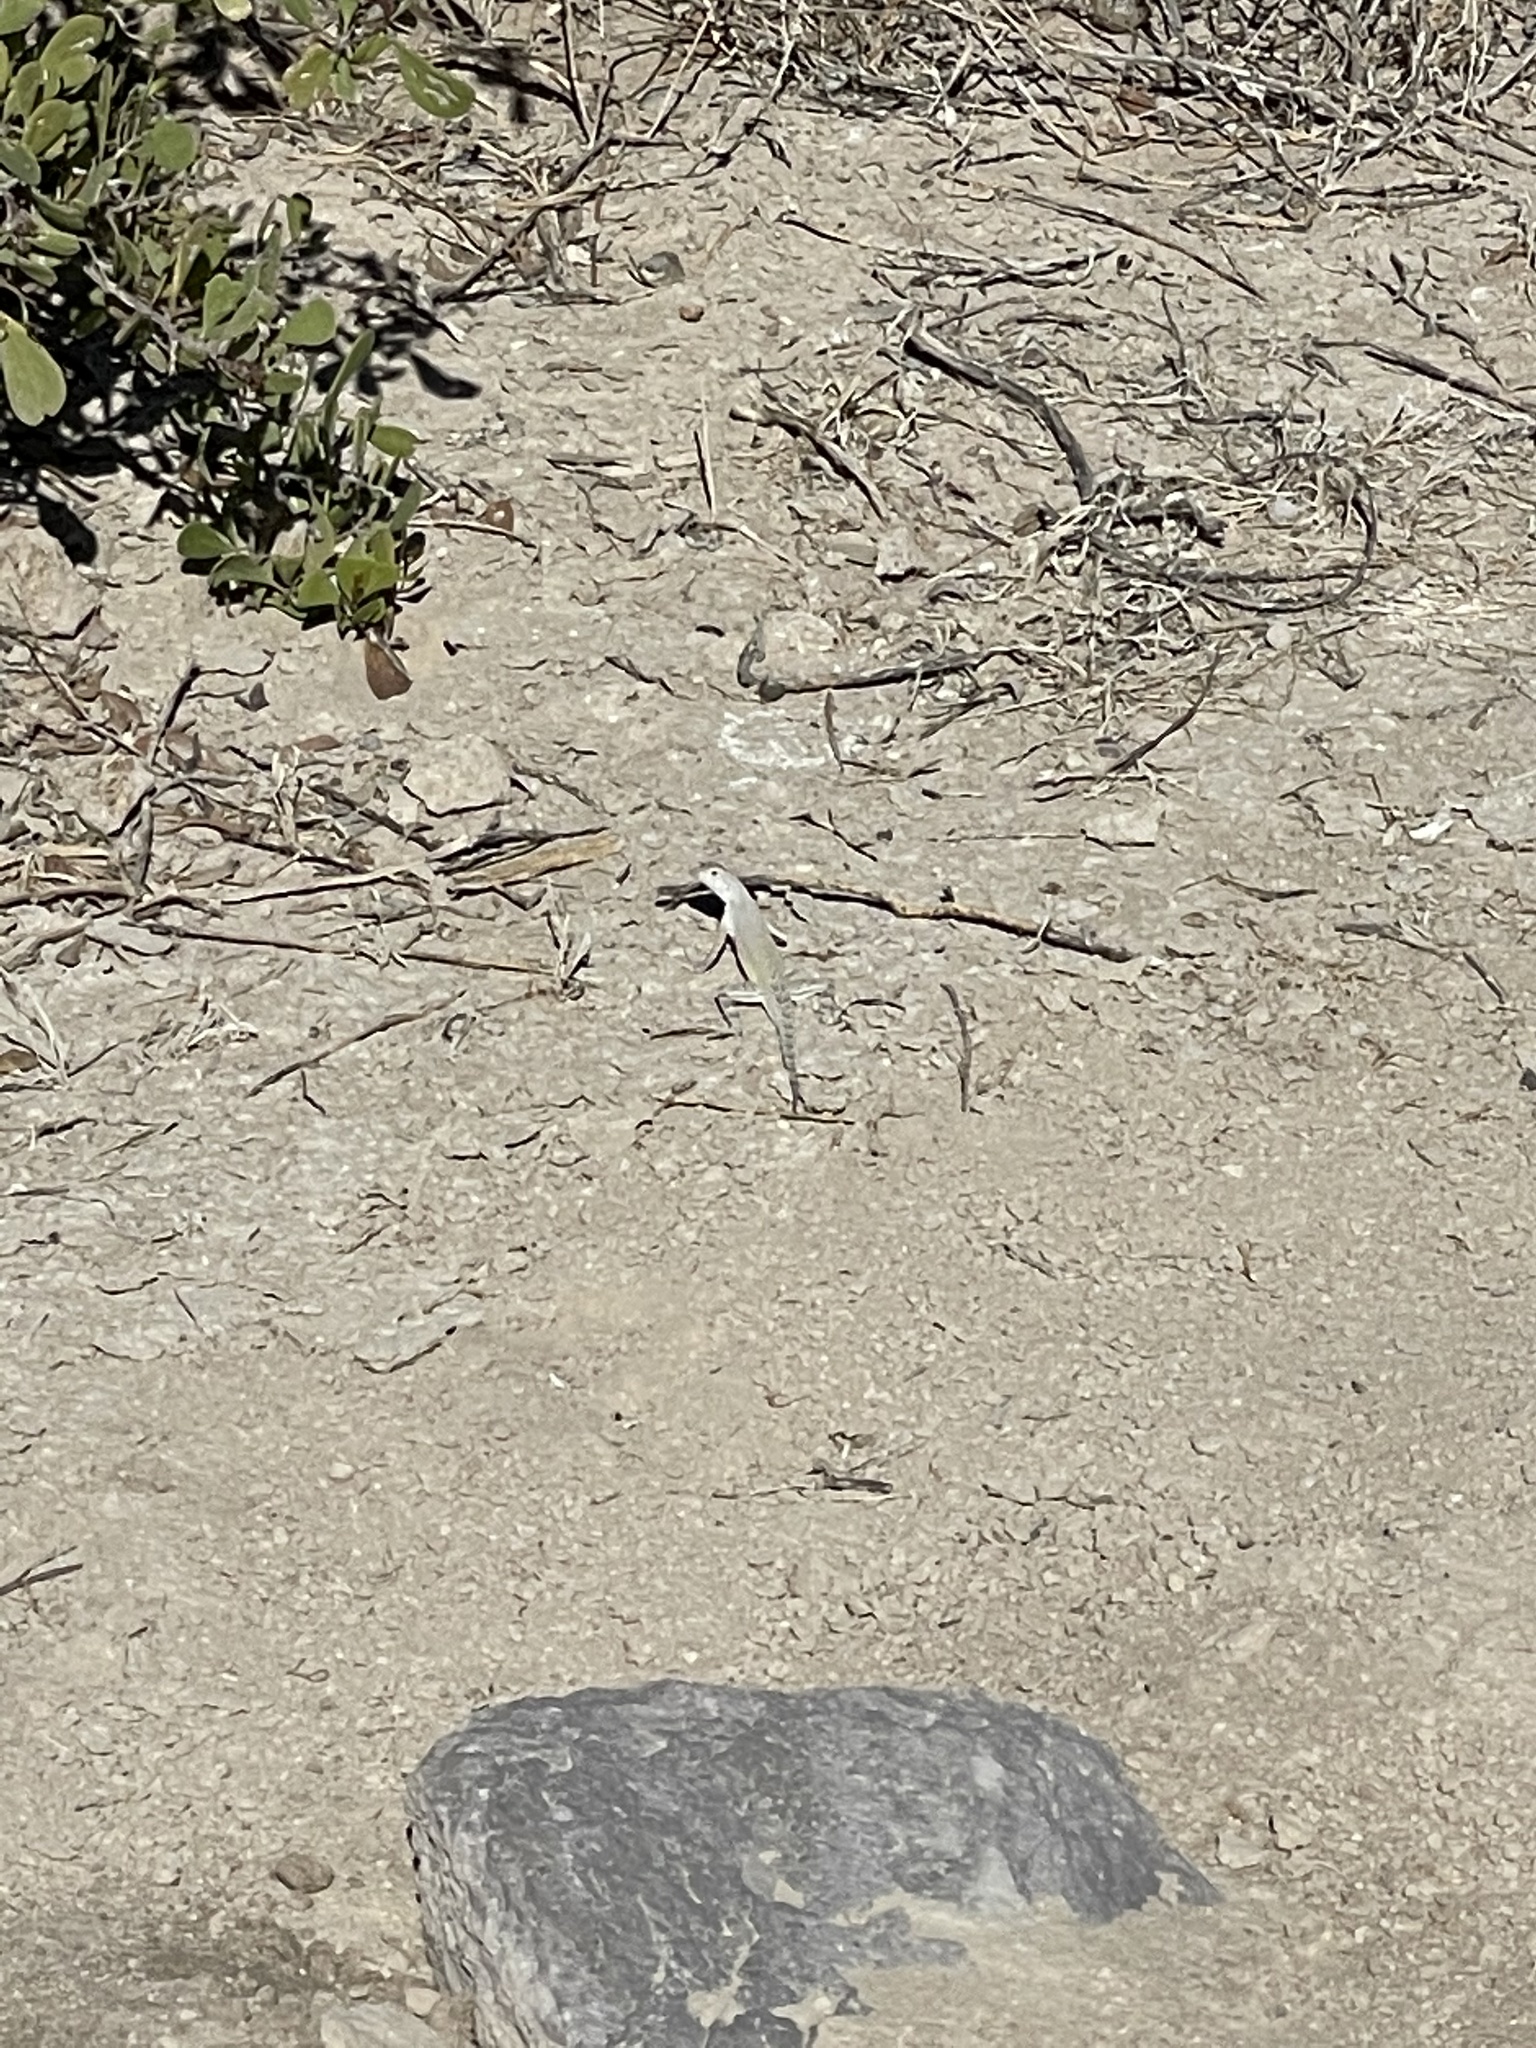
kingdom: Animalia
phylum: Chordata
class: Squamata
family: Phrynosomatidae
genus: Callisaurus
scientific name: Callisaurus draconoides
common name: Zebra-tailed lizard
